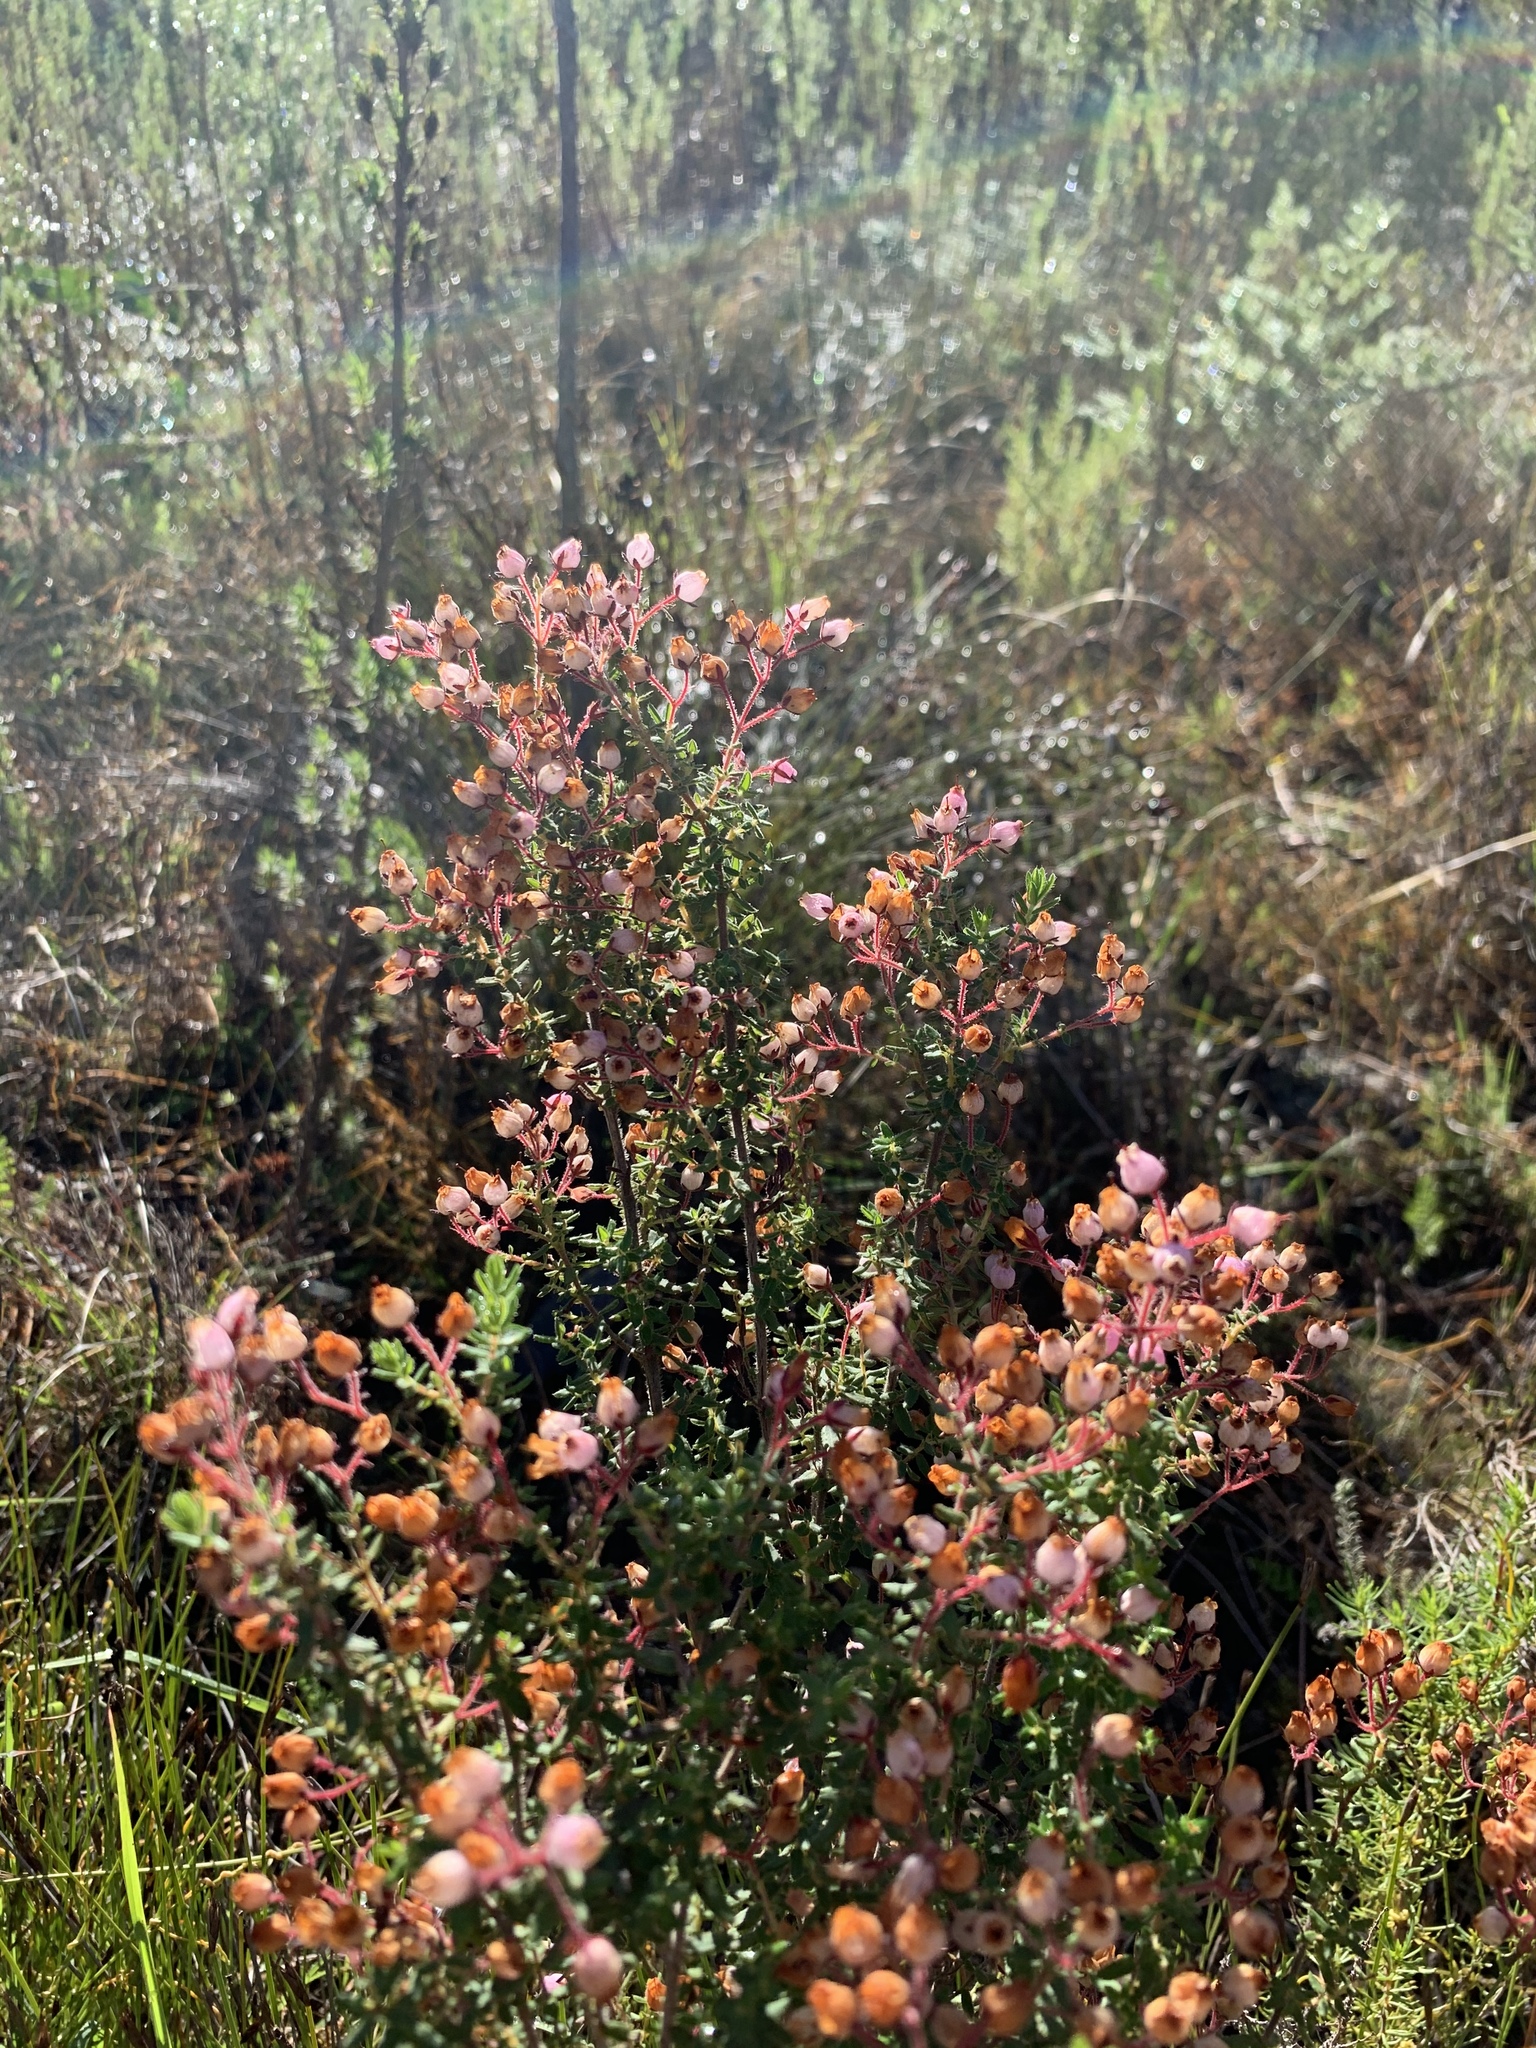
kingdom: Plantae
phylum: Tracheophyta
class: Magnoliopsida
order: Ericales
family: Ericaceae
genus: Erica
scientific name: Erica hirta
